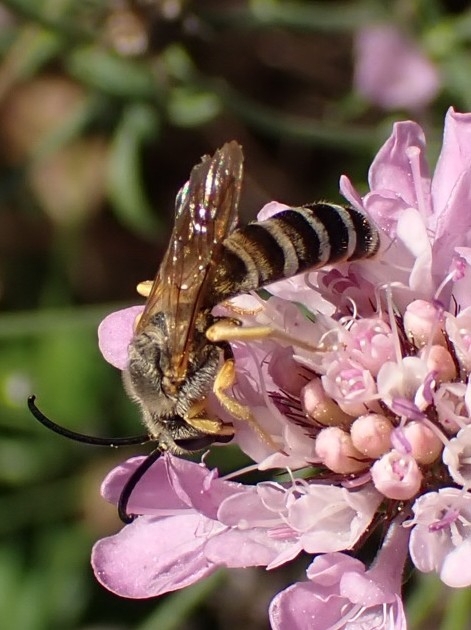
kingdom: Animalia
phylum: Arthropoda
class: Insecta
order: Hymenoptera
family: Halictidae
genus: Halictus
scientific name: Halictus scabiosae
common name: Great banded furrow bee
